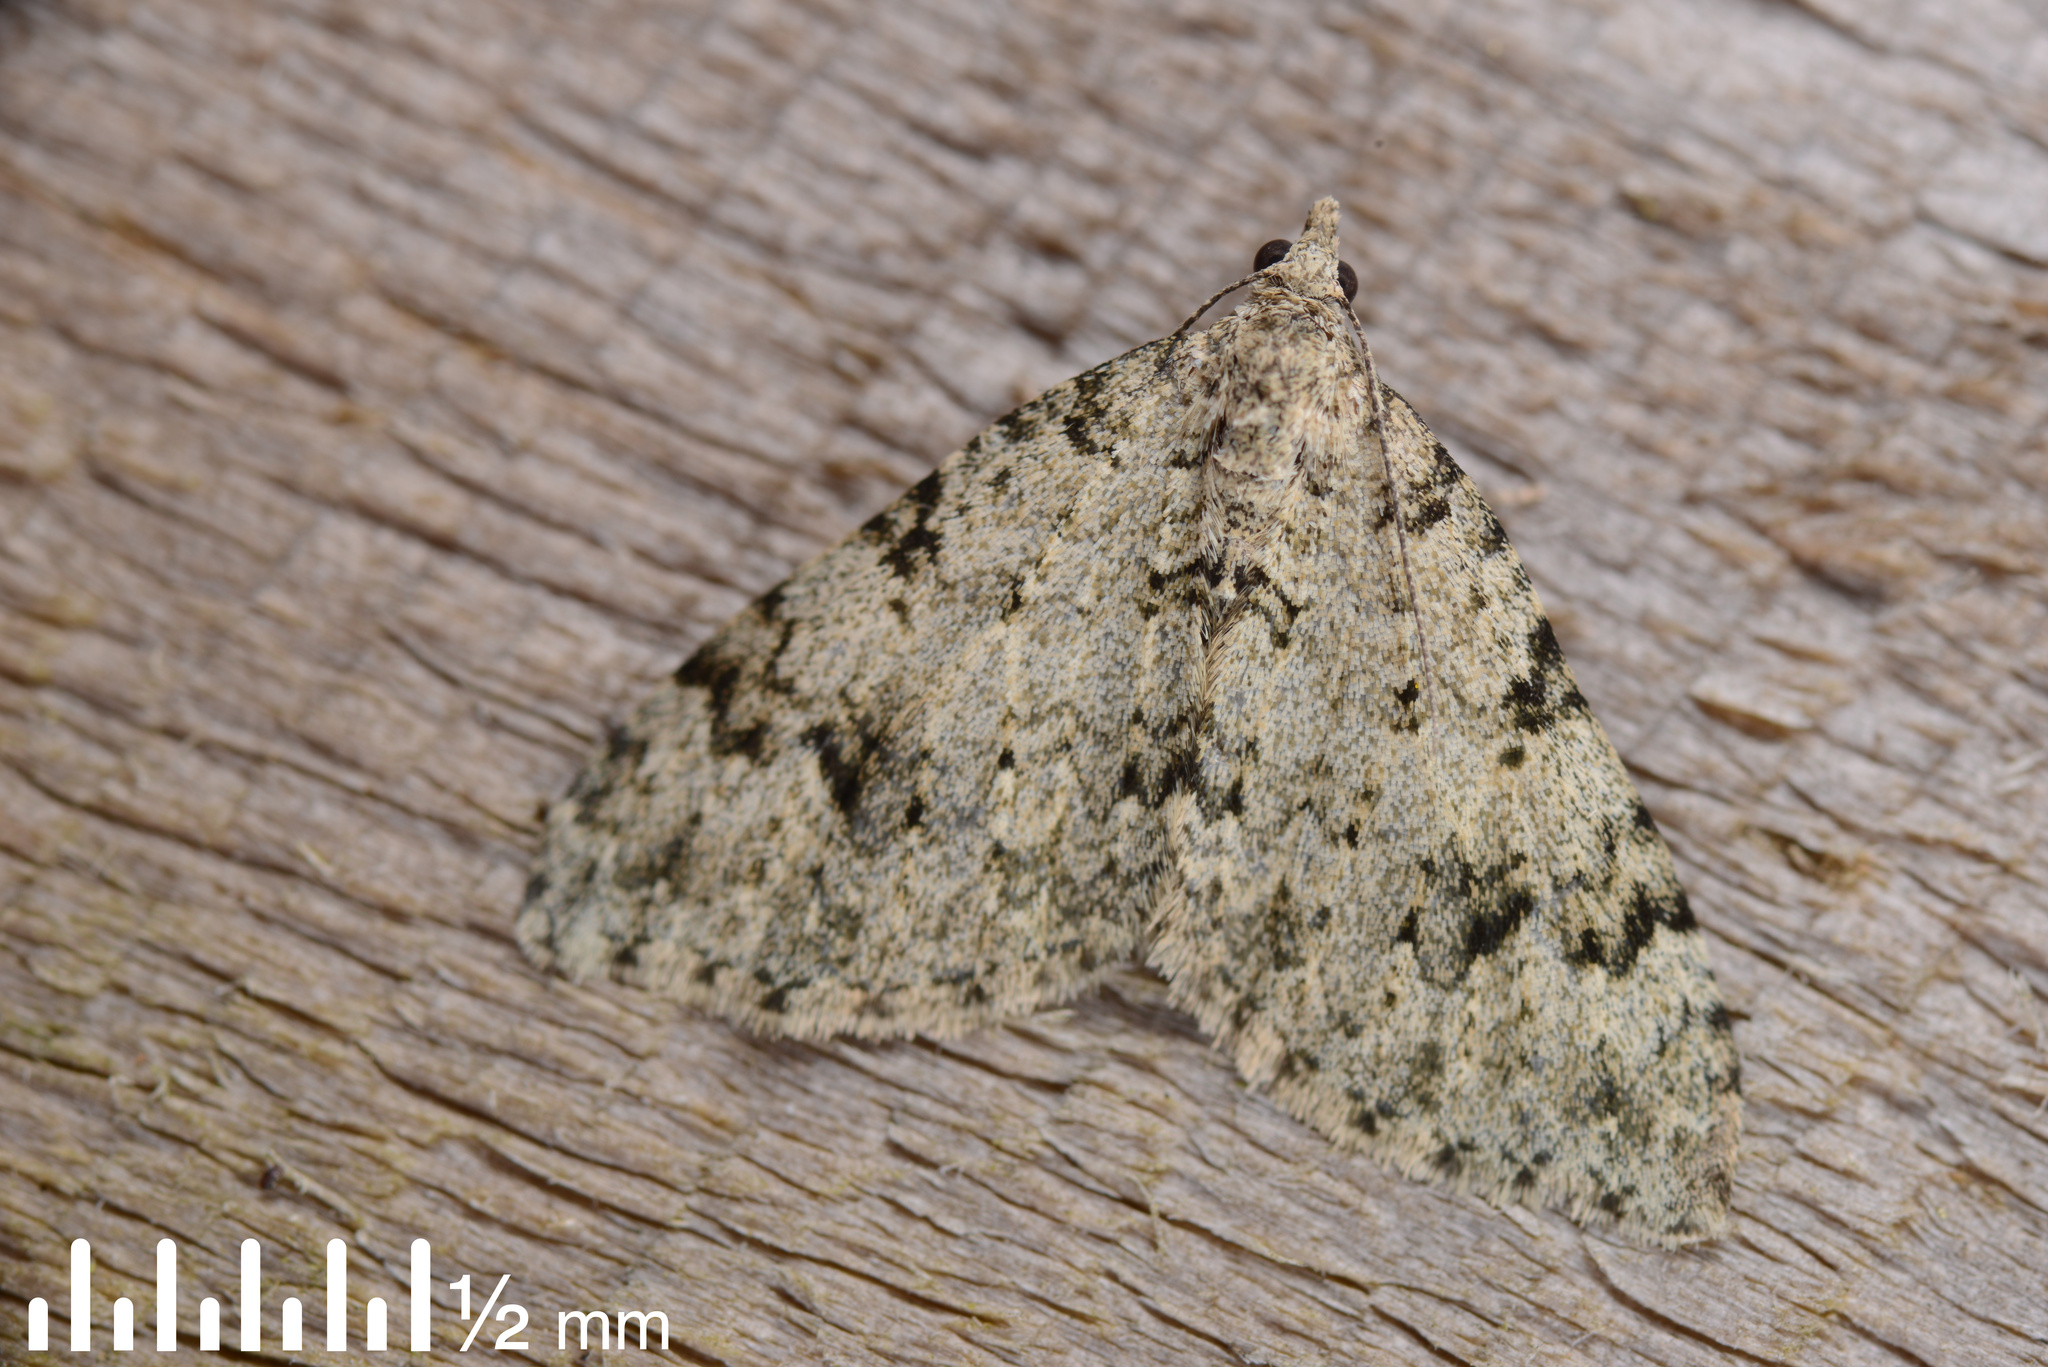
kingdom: Animalia
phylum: Arthropoda
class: Insecta
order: Lepidoptera
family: Geometridae
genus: Helastia
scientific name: Helastia cinerearia
